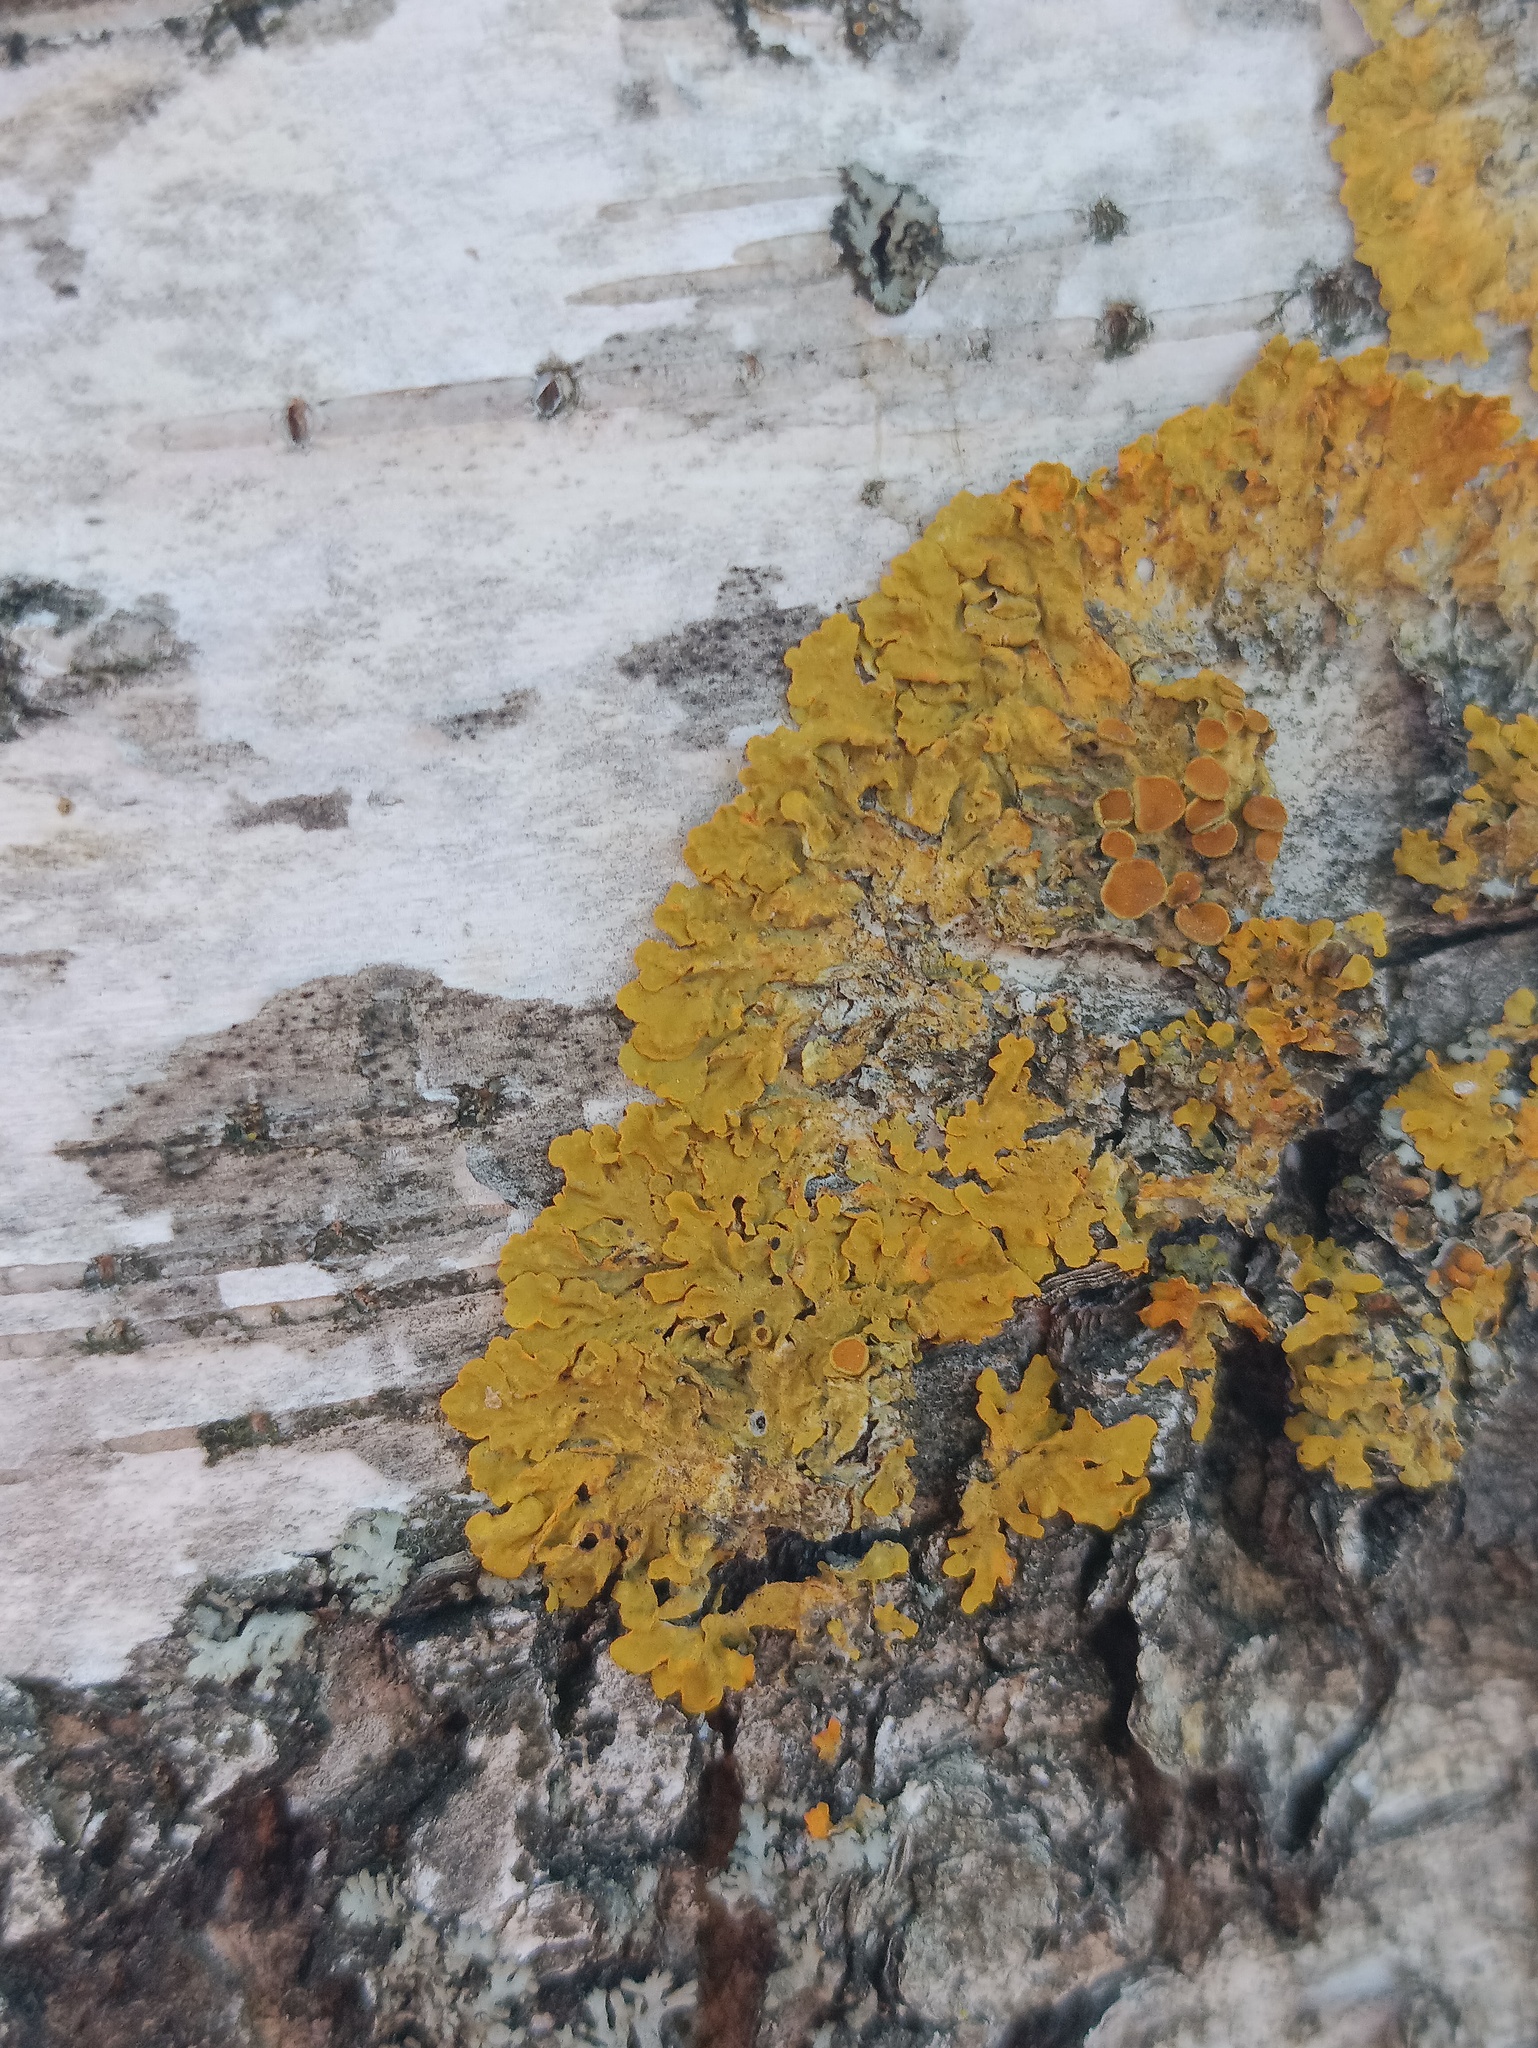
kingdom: Fungi
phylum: Ascomycota
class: Lecanoromycetes
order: Teloschistales
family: Teloschistaceae
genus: Xanthoria
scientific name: Xanthoria parietina
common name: Common orange lichen
